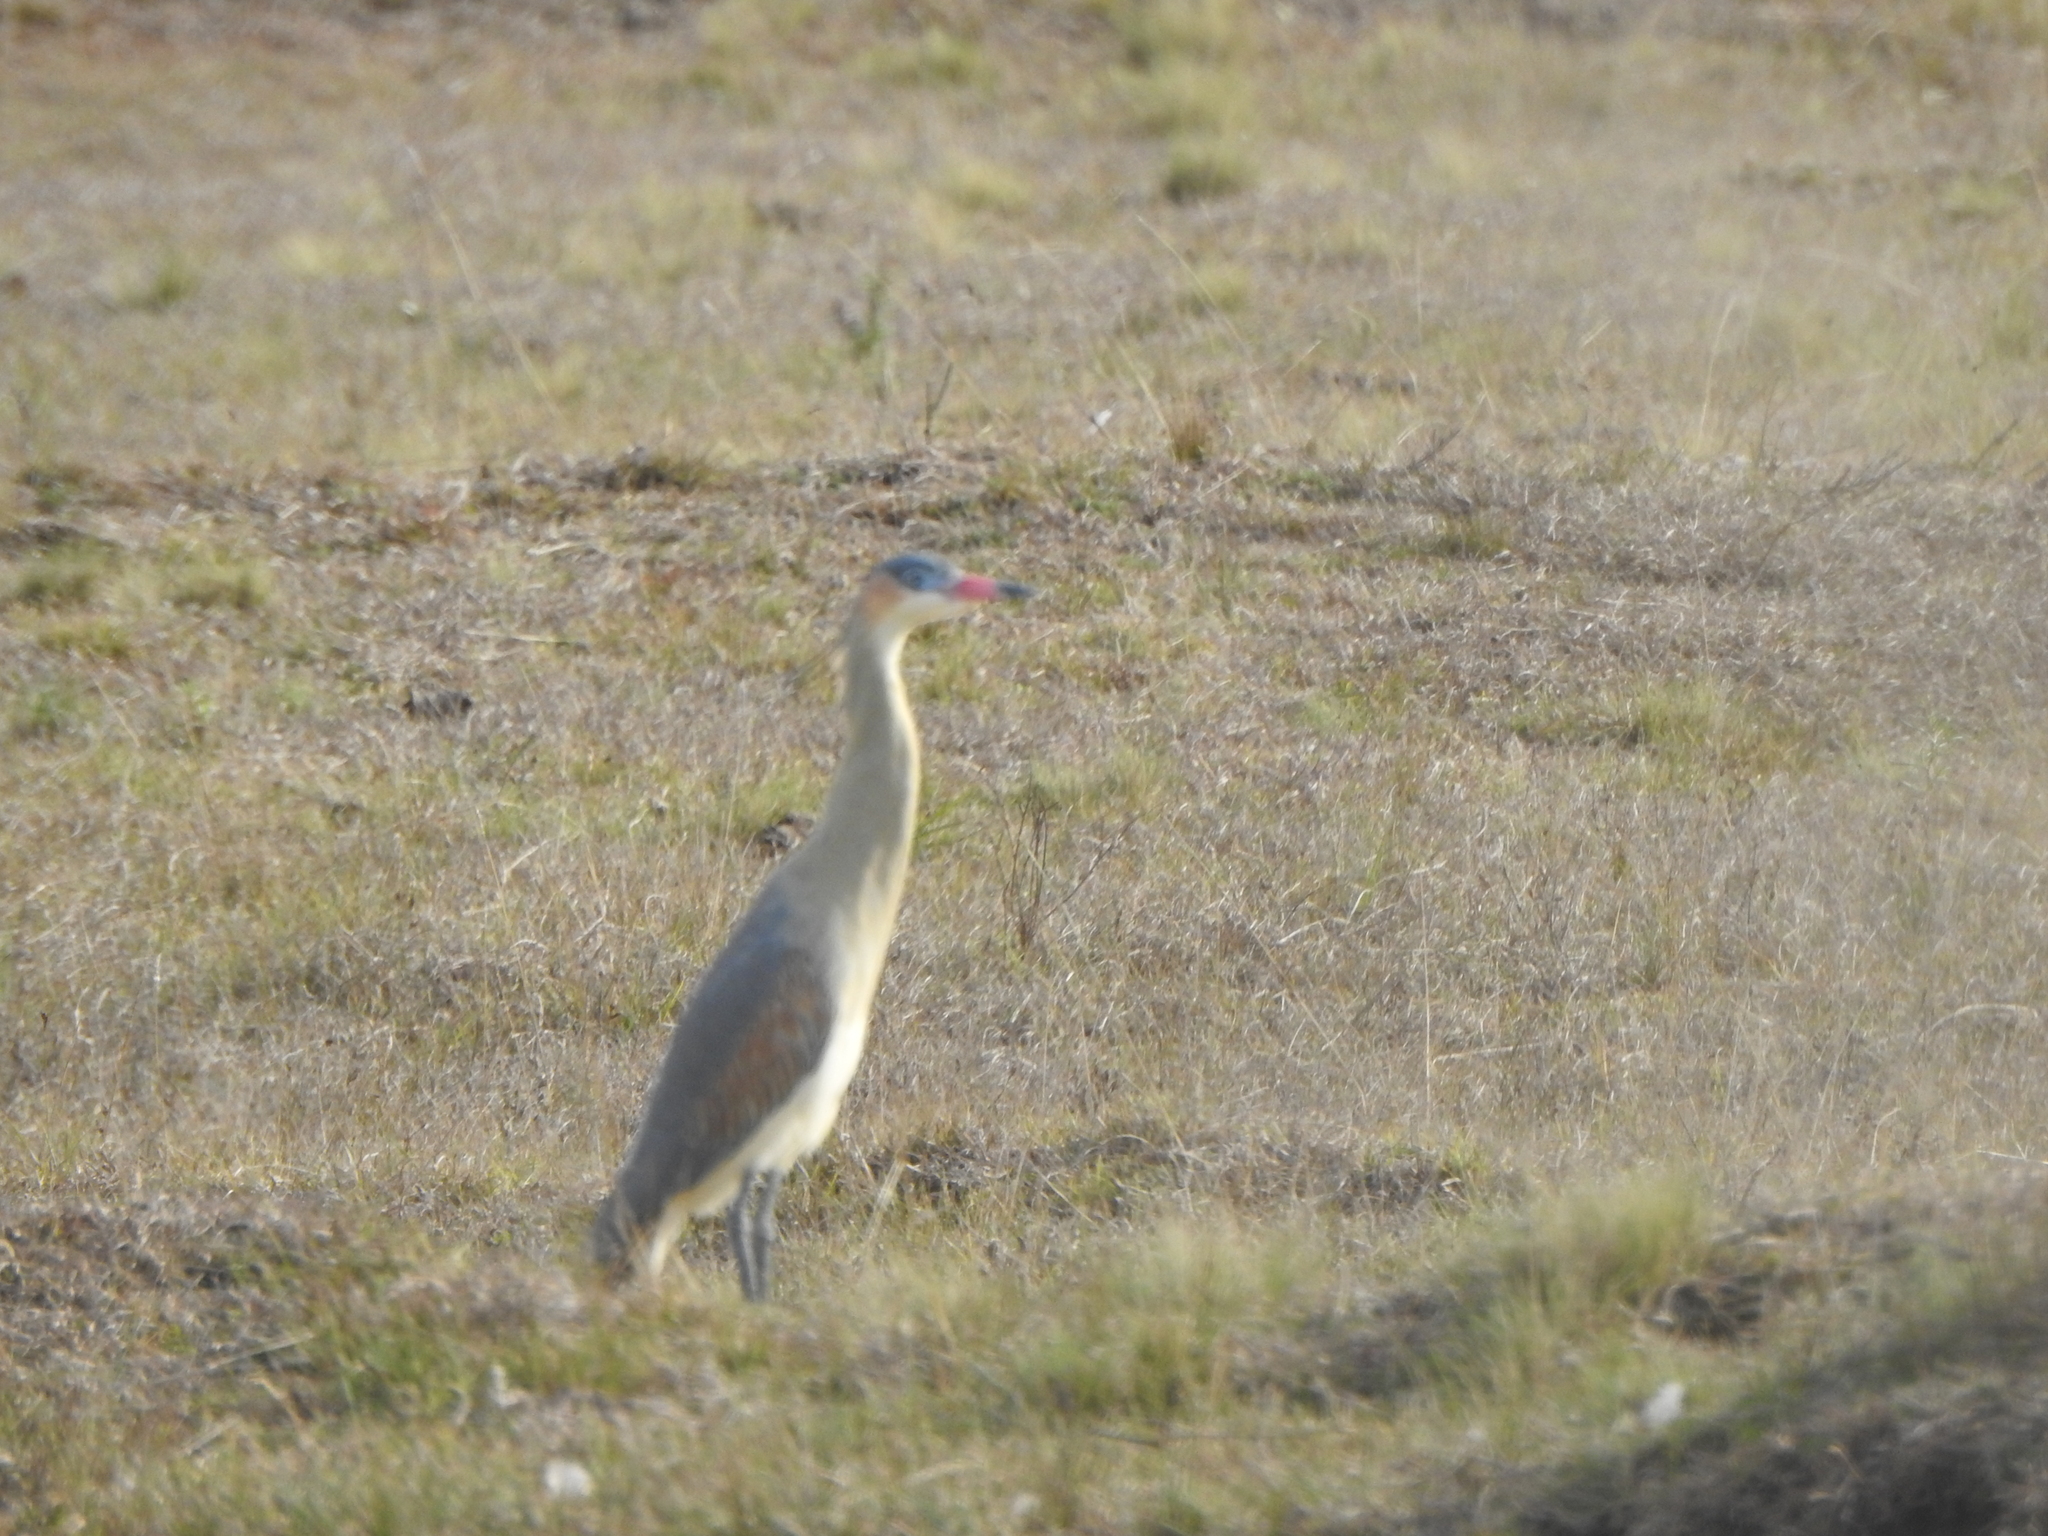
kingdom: Animalia
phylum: Chordata
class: Aves
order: Pelecaniformes
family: Ardeidae
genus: Syrigma
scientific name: Syrigma sibilatrix
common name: Whistling heron
